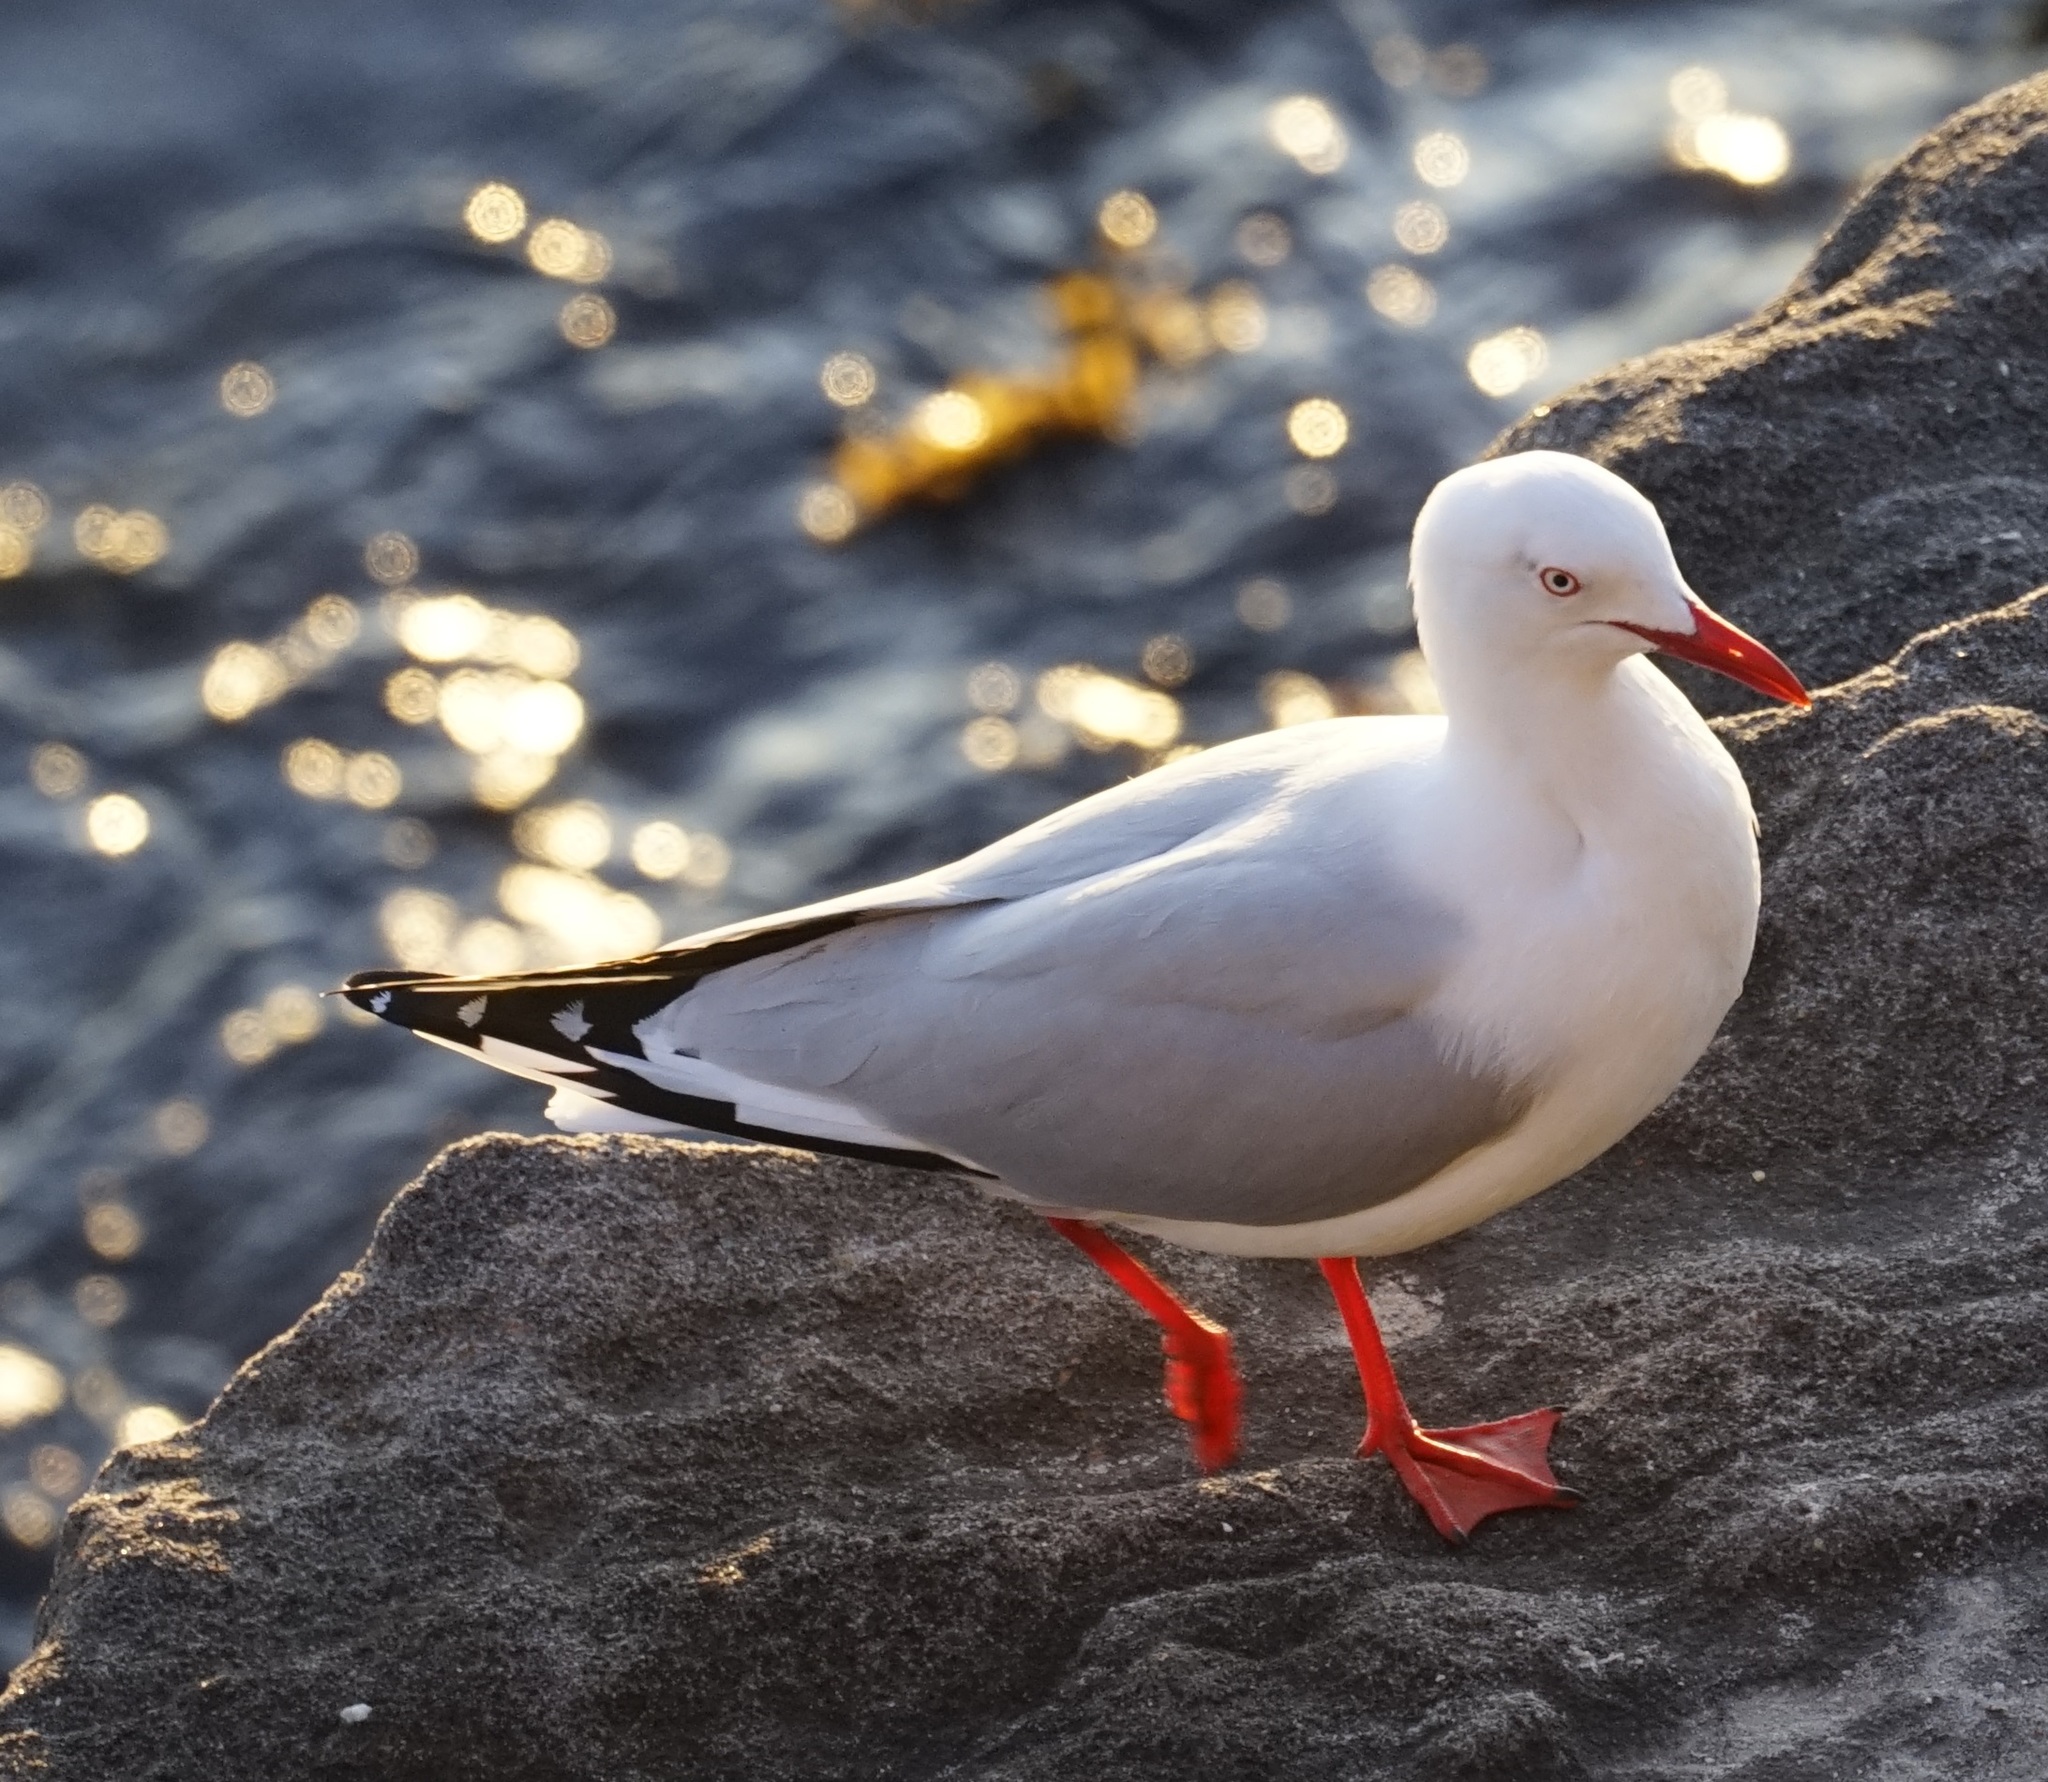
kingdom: Animalia
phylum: Chordata
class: Aves
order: Charadriiformes
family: Laridae
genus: Chroicocephalus
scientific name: Chroicocephalus novaehollandiae
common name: Silver gull
